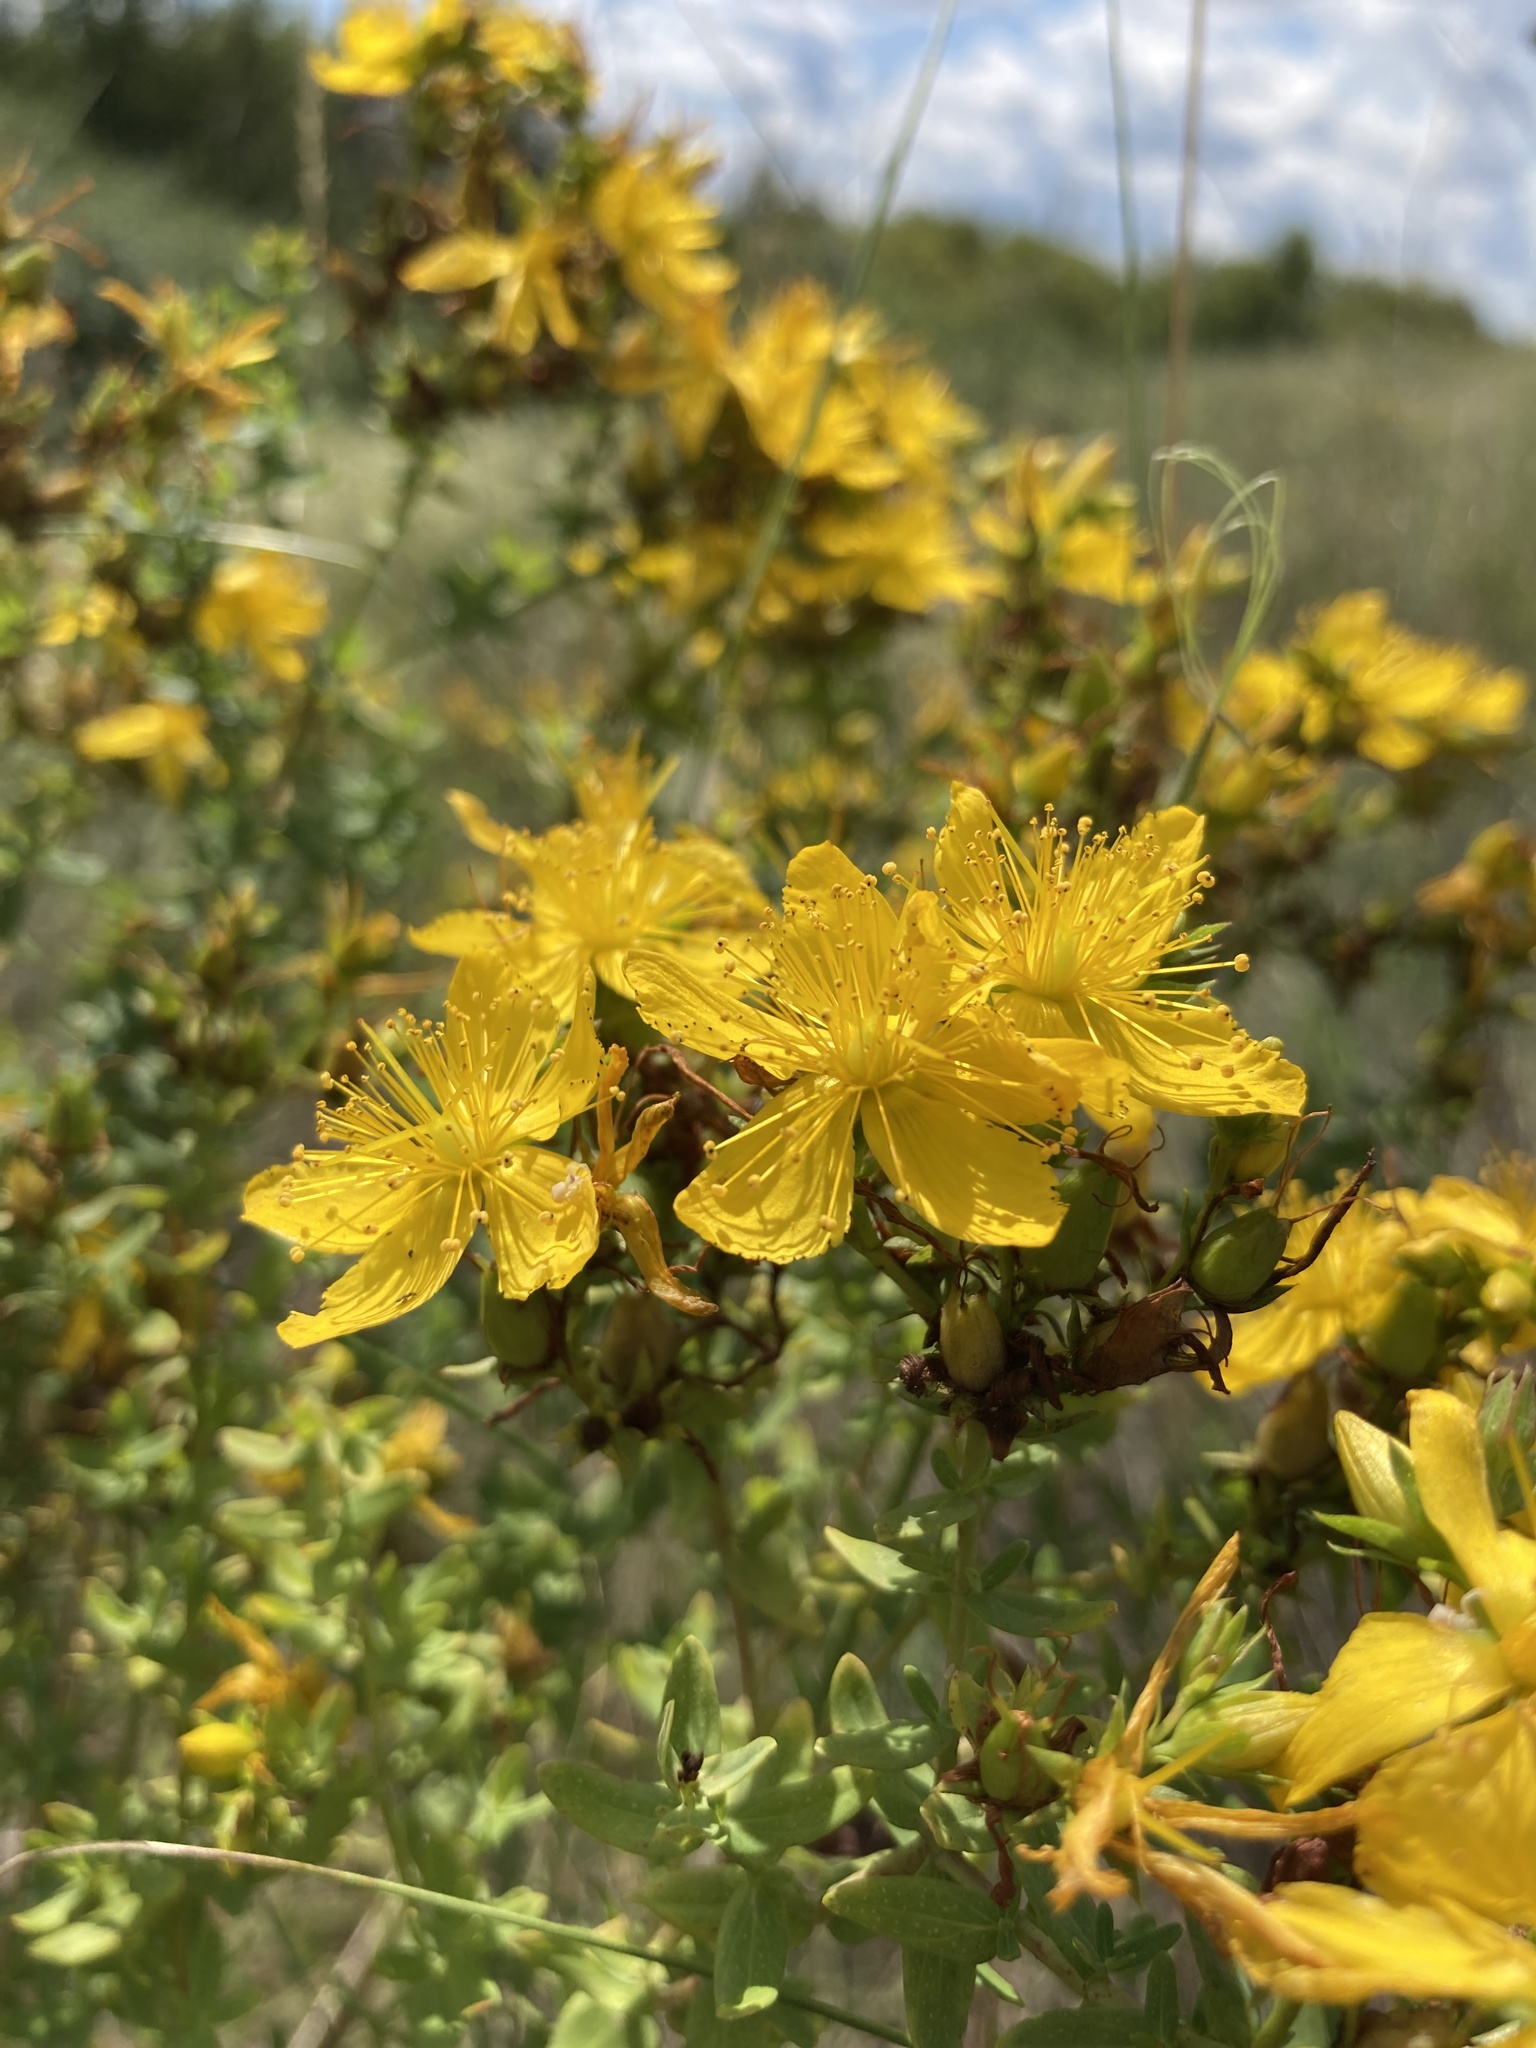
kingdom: Plantae
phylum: Tracheophyta
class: Magnoliopsida
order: Malpighiales
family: Hypericaceae
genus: Hypericum
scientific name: Hypericum perforatum
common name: Common st. johnswort
